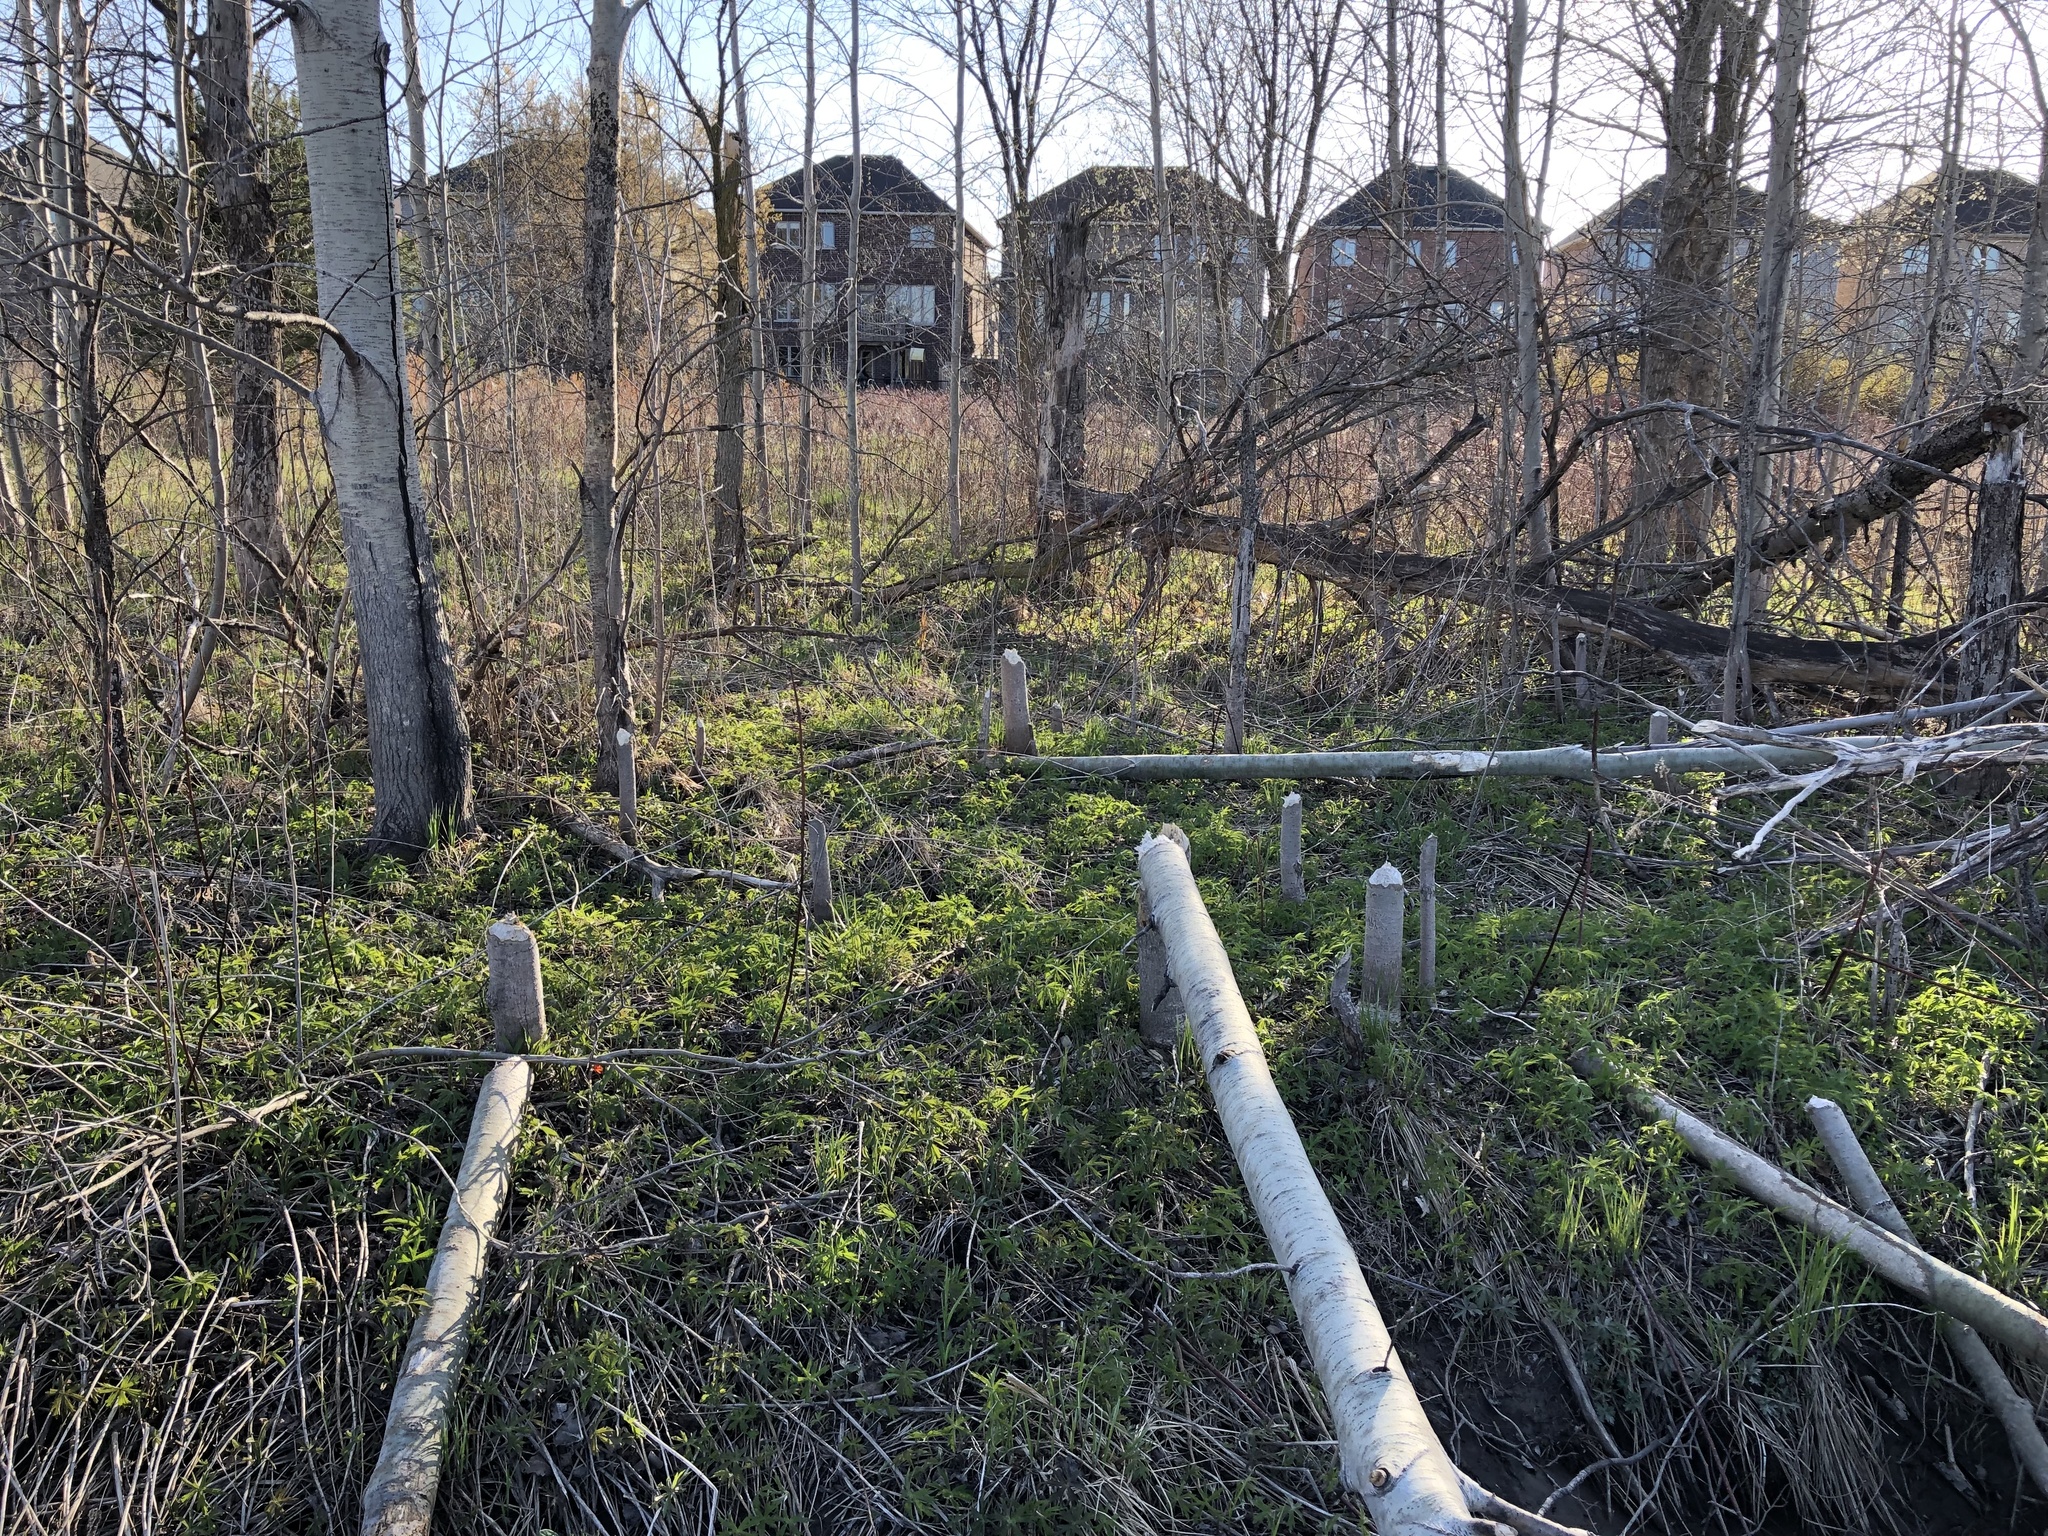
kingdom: Animalia
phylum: Chordata
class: Mammalia
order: Rodentia
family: Castoridae
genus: Castor
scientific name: Castor canadensis
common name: American beaver
